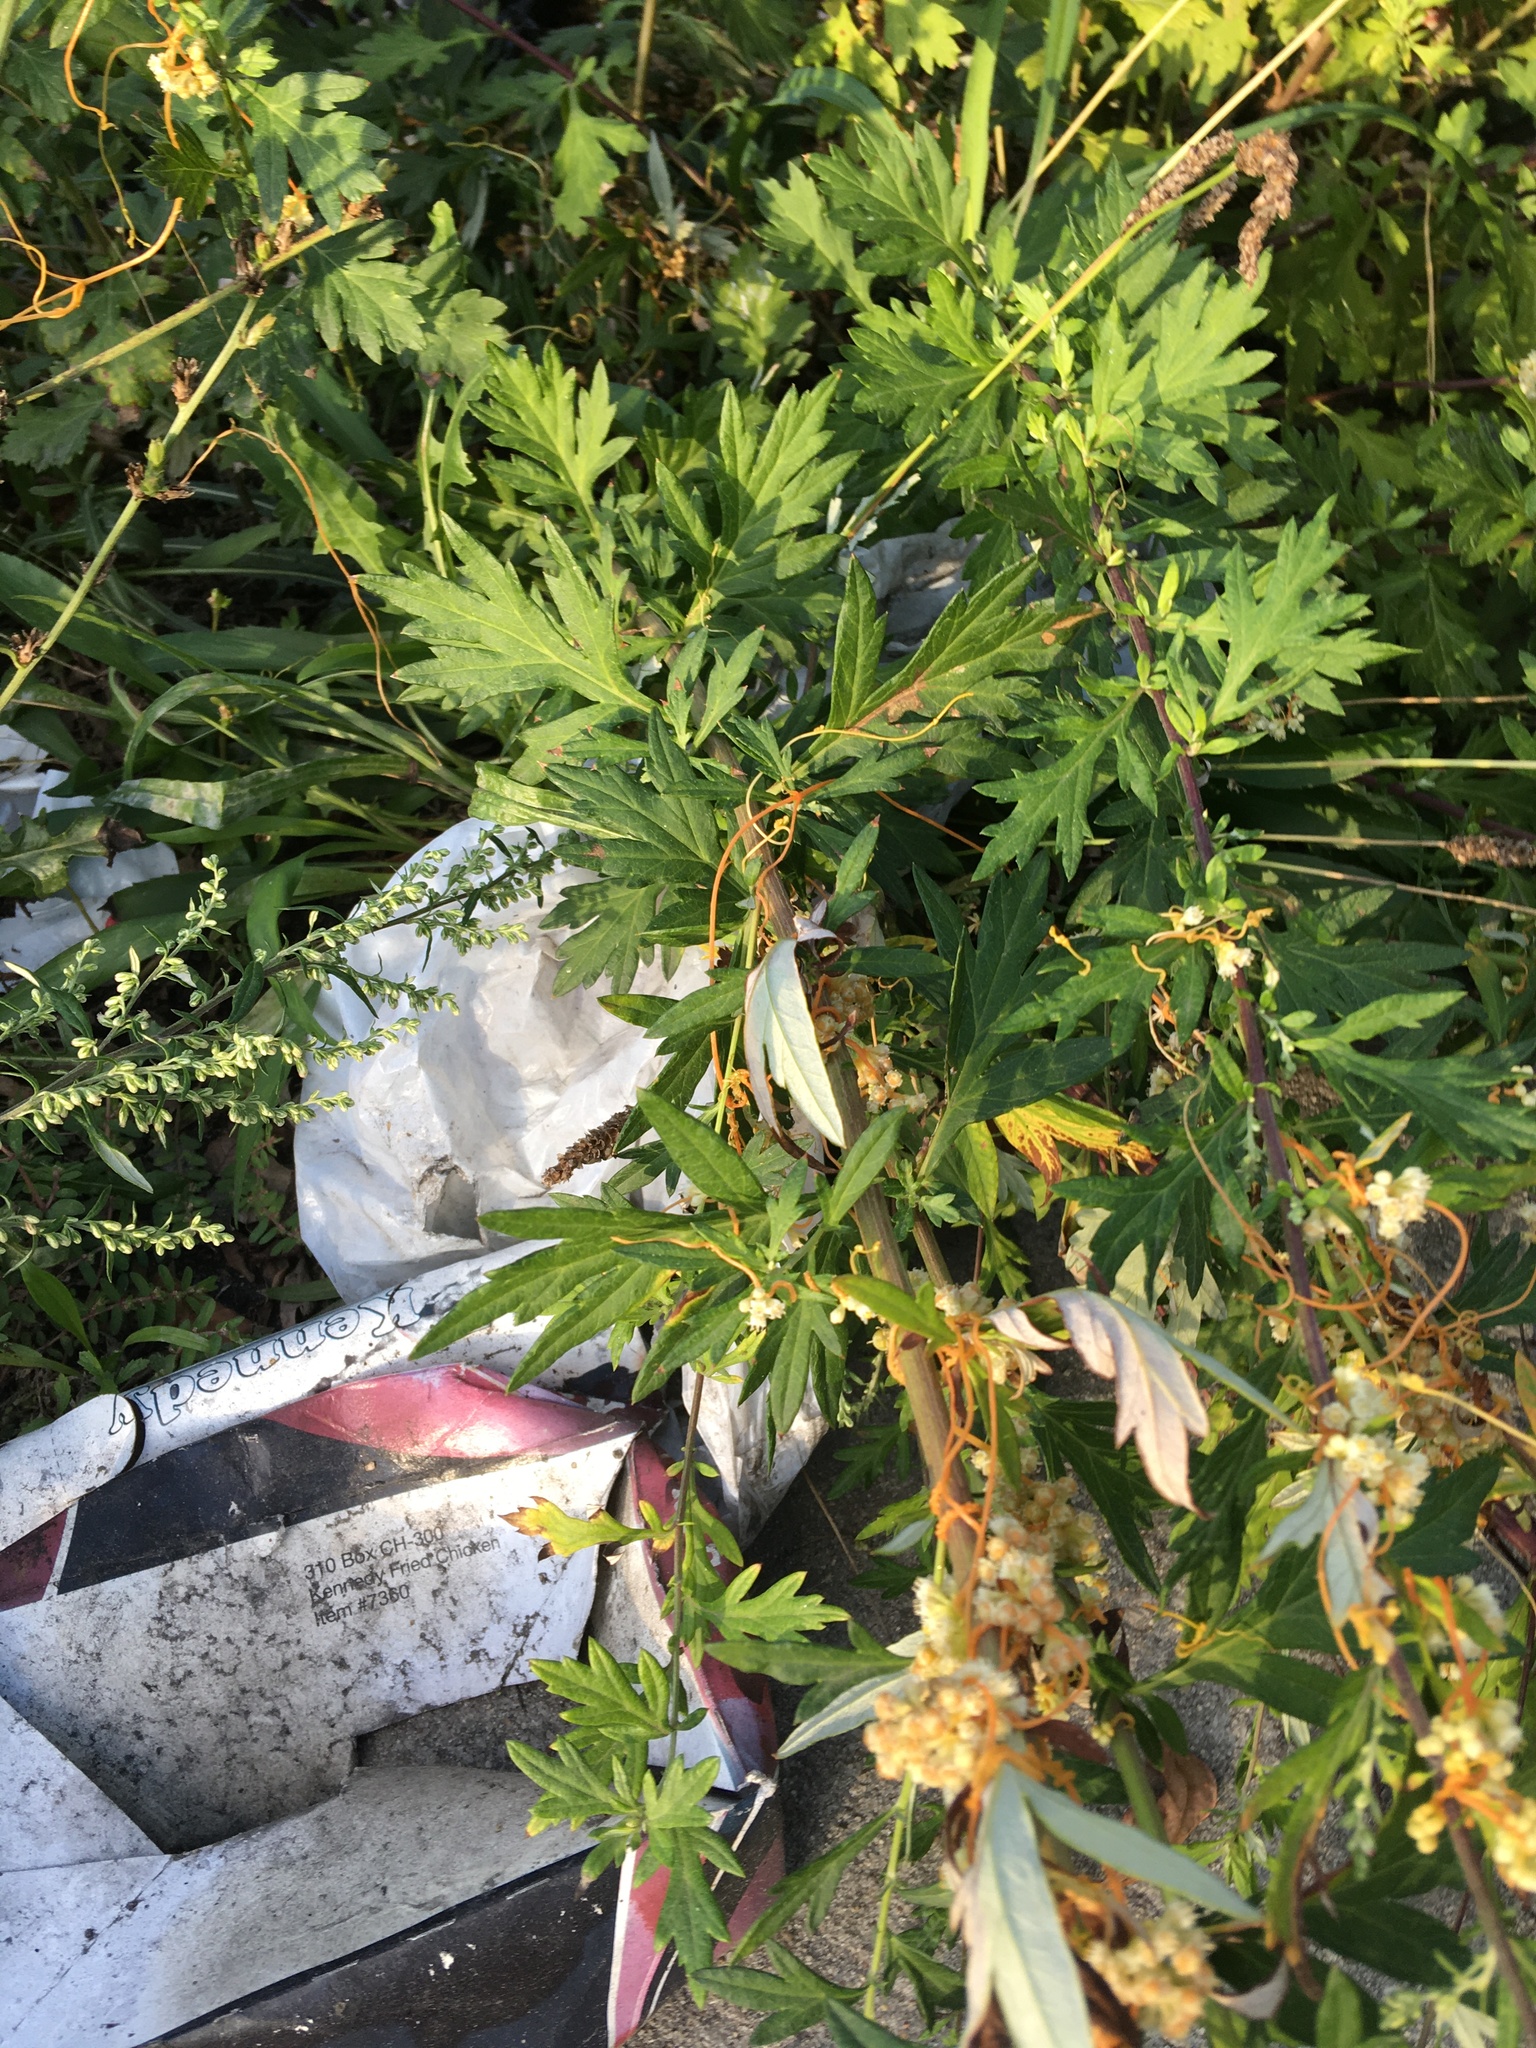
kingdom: Plantae
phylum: Tracheophyta
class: Magnoliopsida
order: Asterales
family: Asteraceae
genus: Artemisia
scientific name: Artemisia vulgaris
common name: Mugwort
